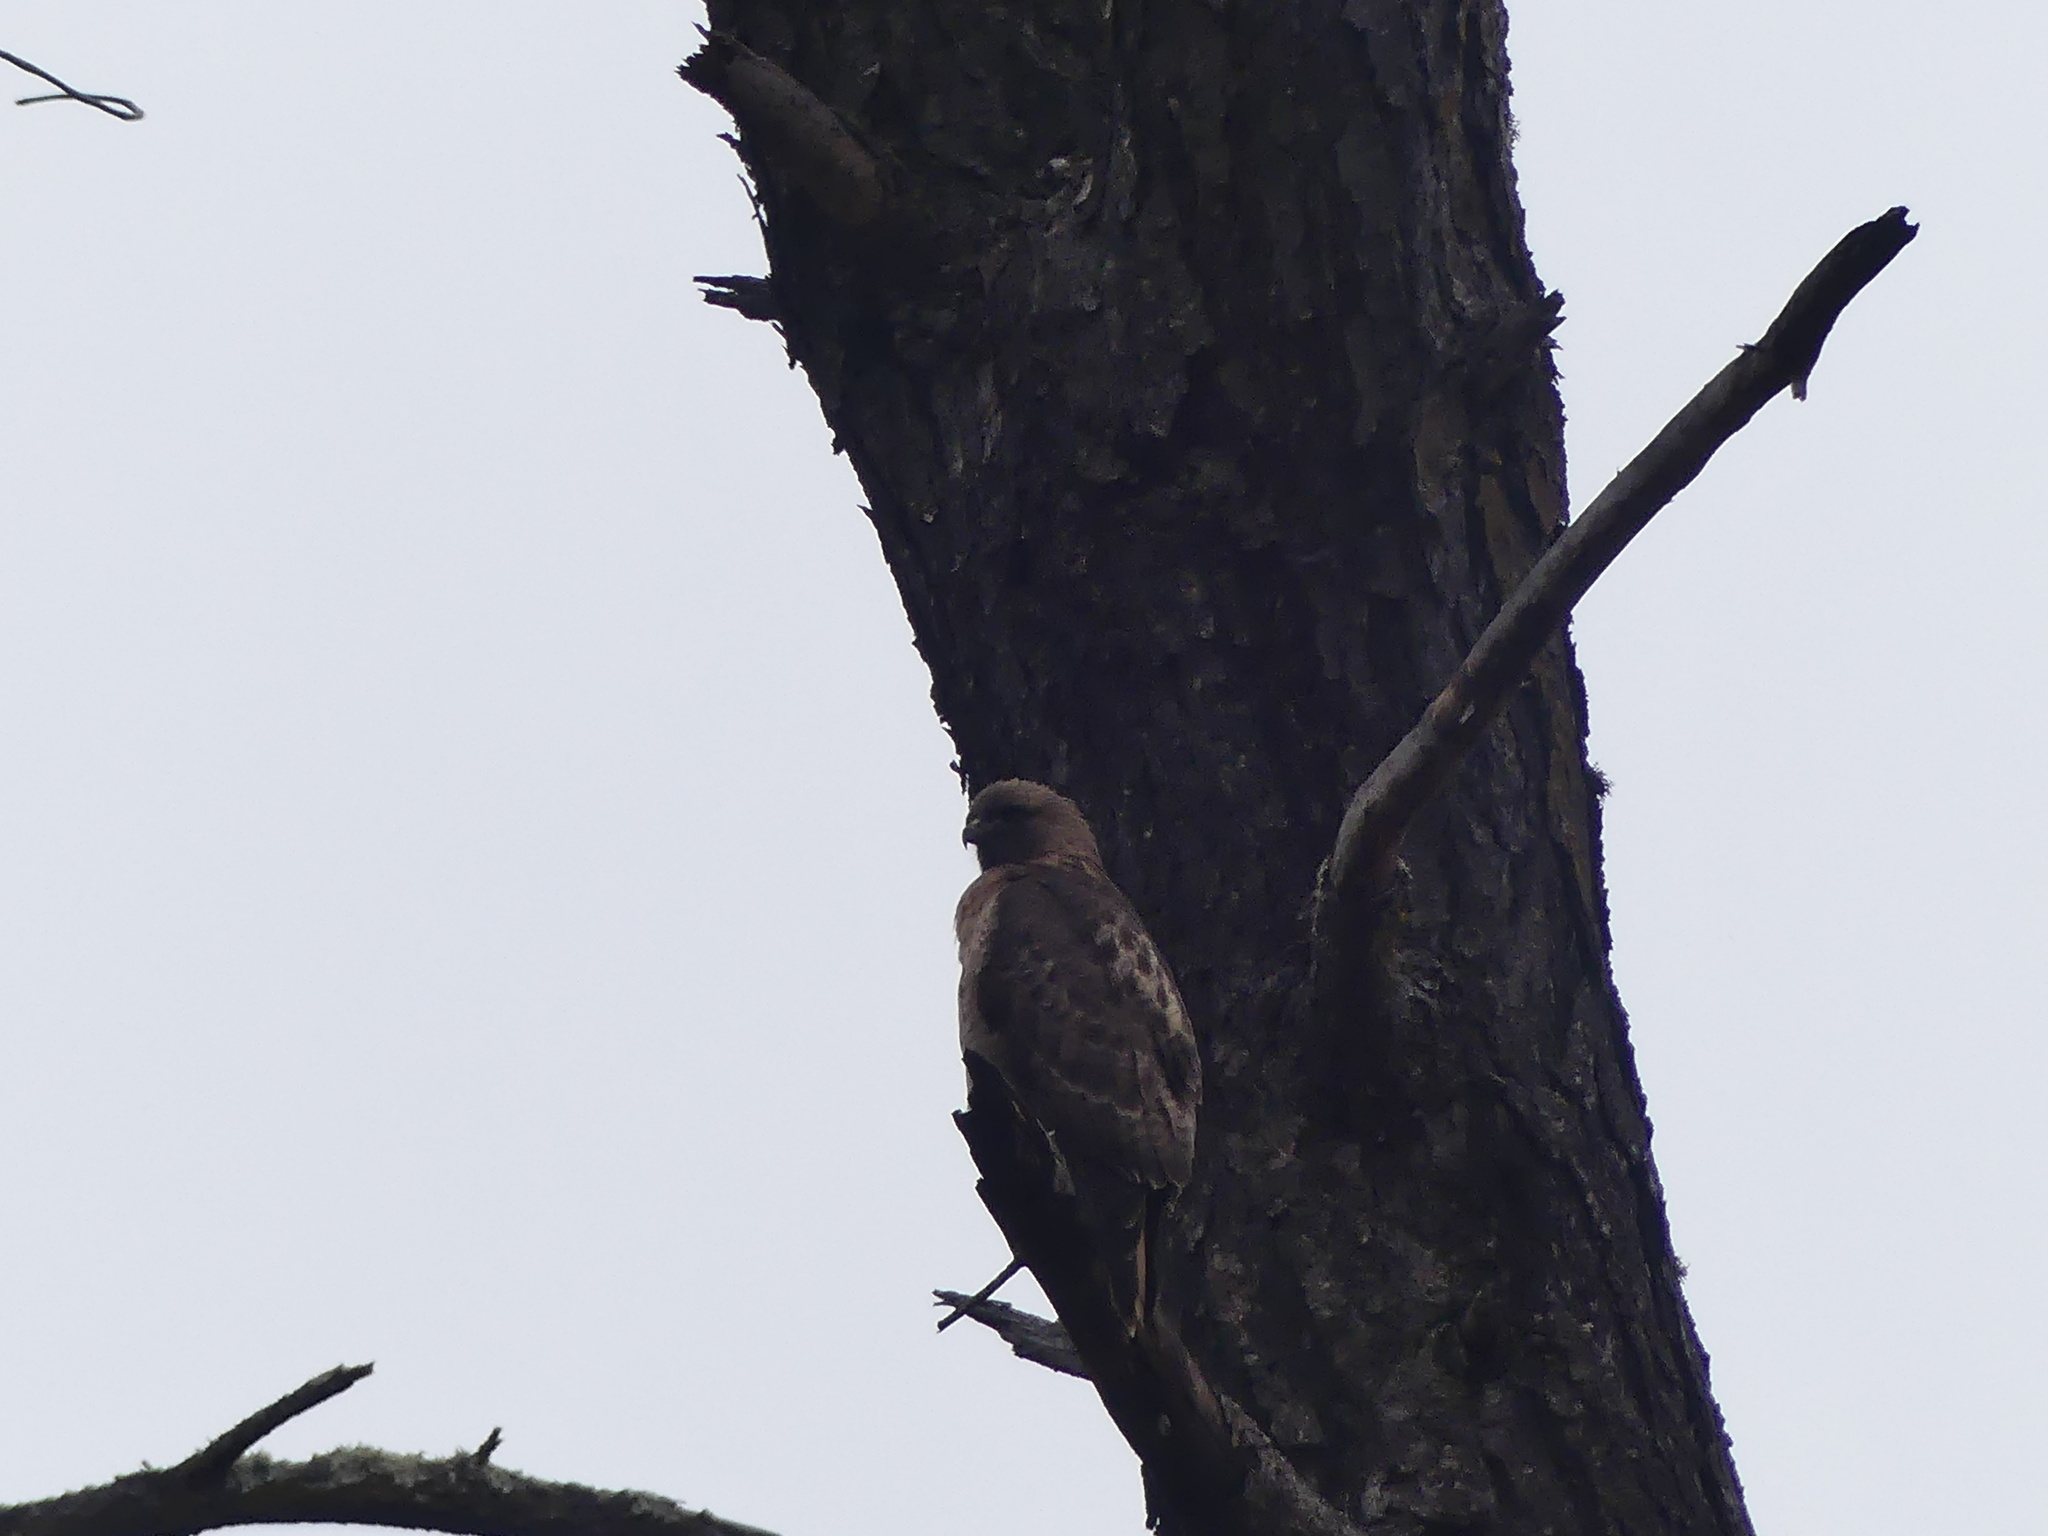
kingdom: Animalia
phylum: Chordata
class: Aves
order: Accipitriformes
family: Accipitridae
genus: Buteo
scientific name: Buteo jamaicensis
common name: Red-tailed hawk
